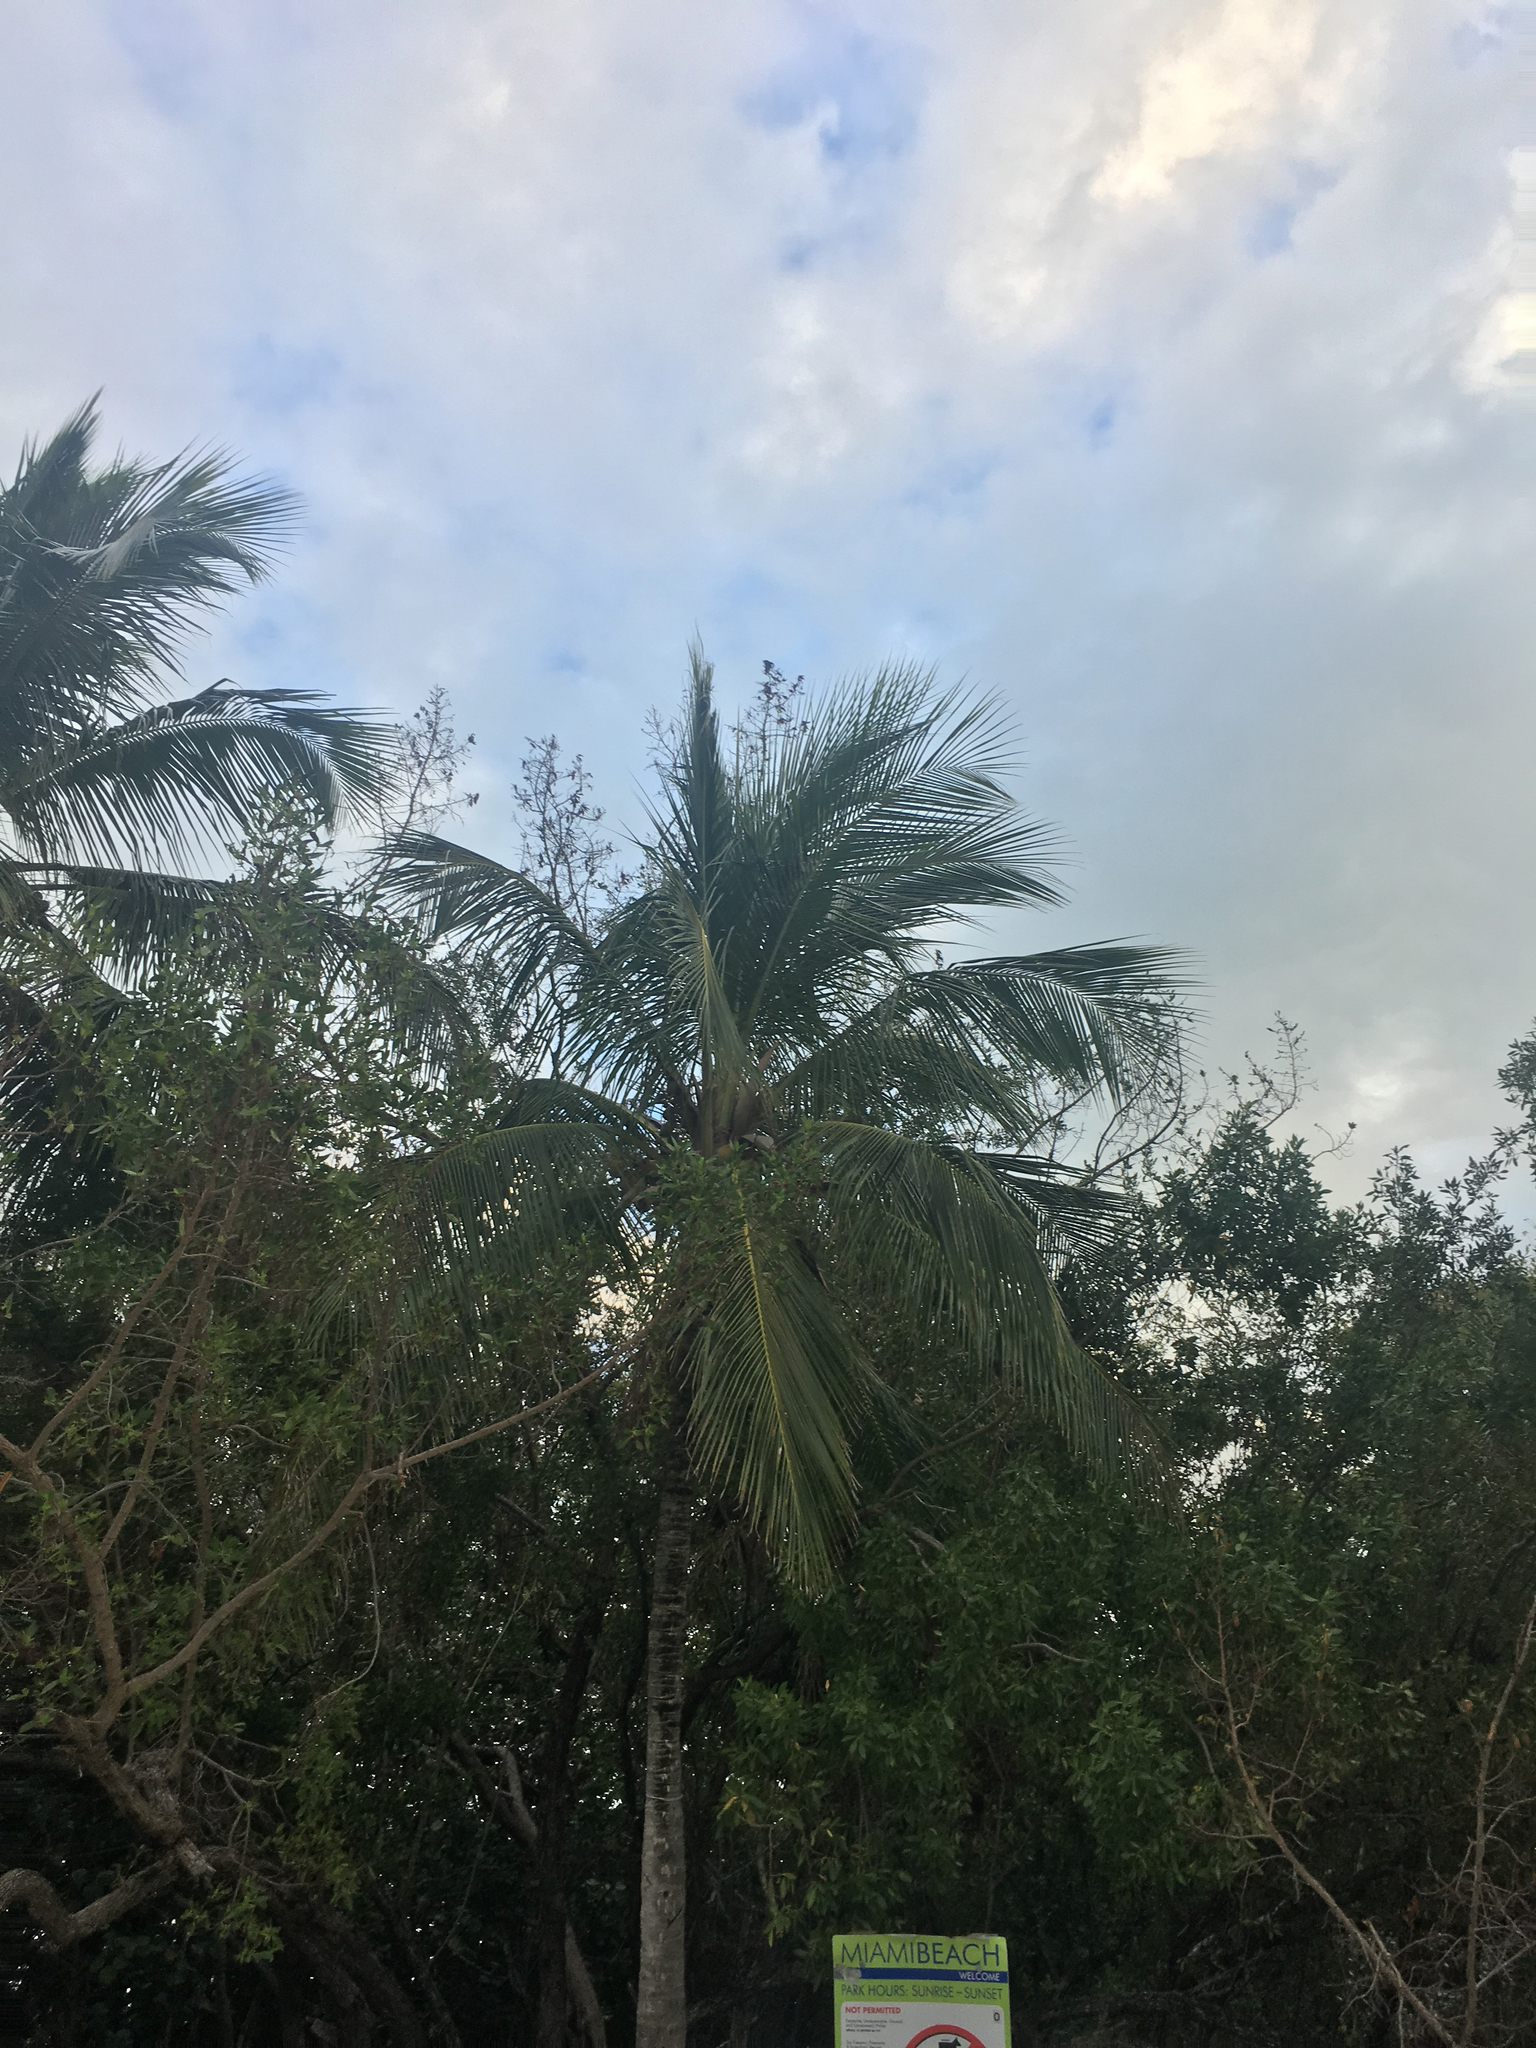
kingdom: Plantae
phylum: Tracheophyta
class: Liliopsida
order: Arecales
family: Arecaceae
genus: Cocos
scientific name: Cocos nucifera
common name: Coconut palm
